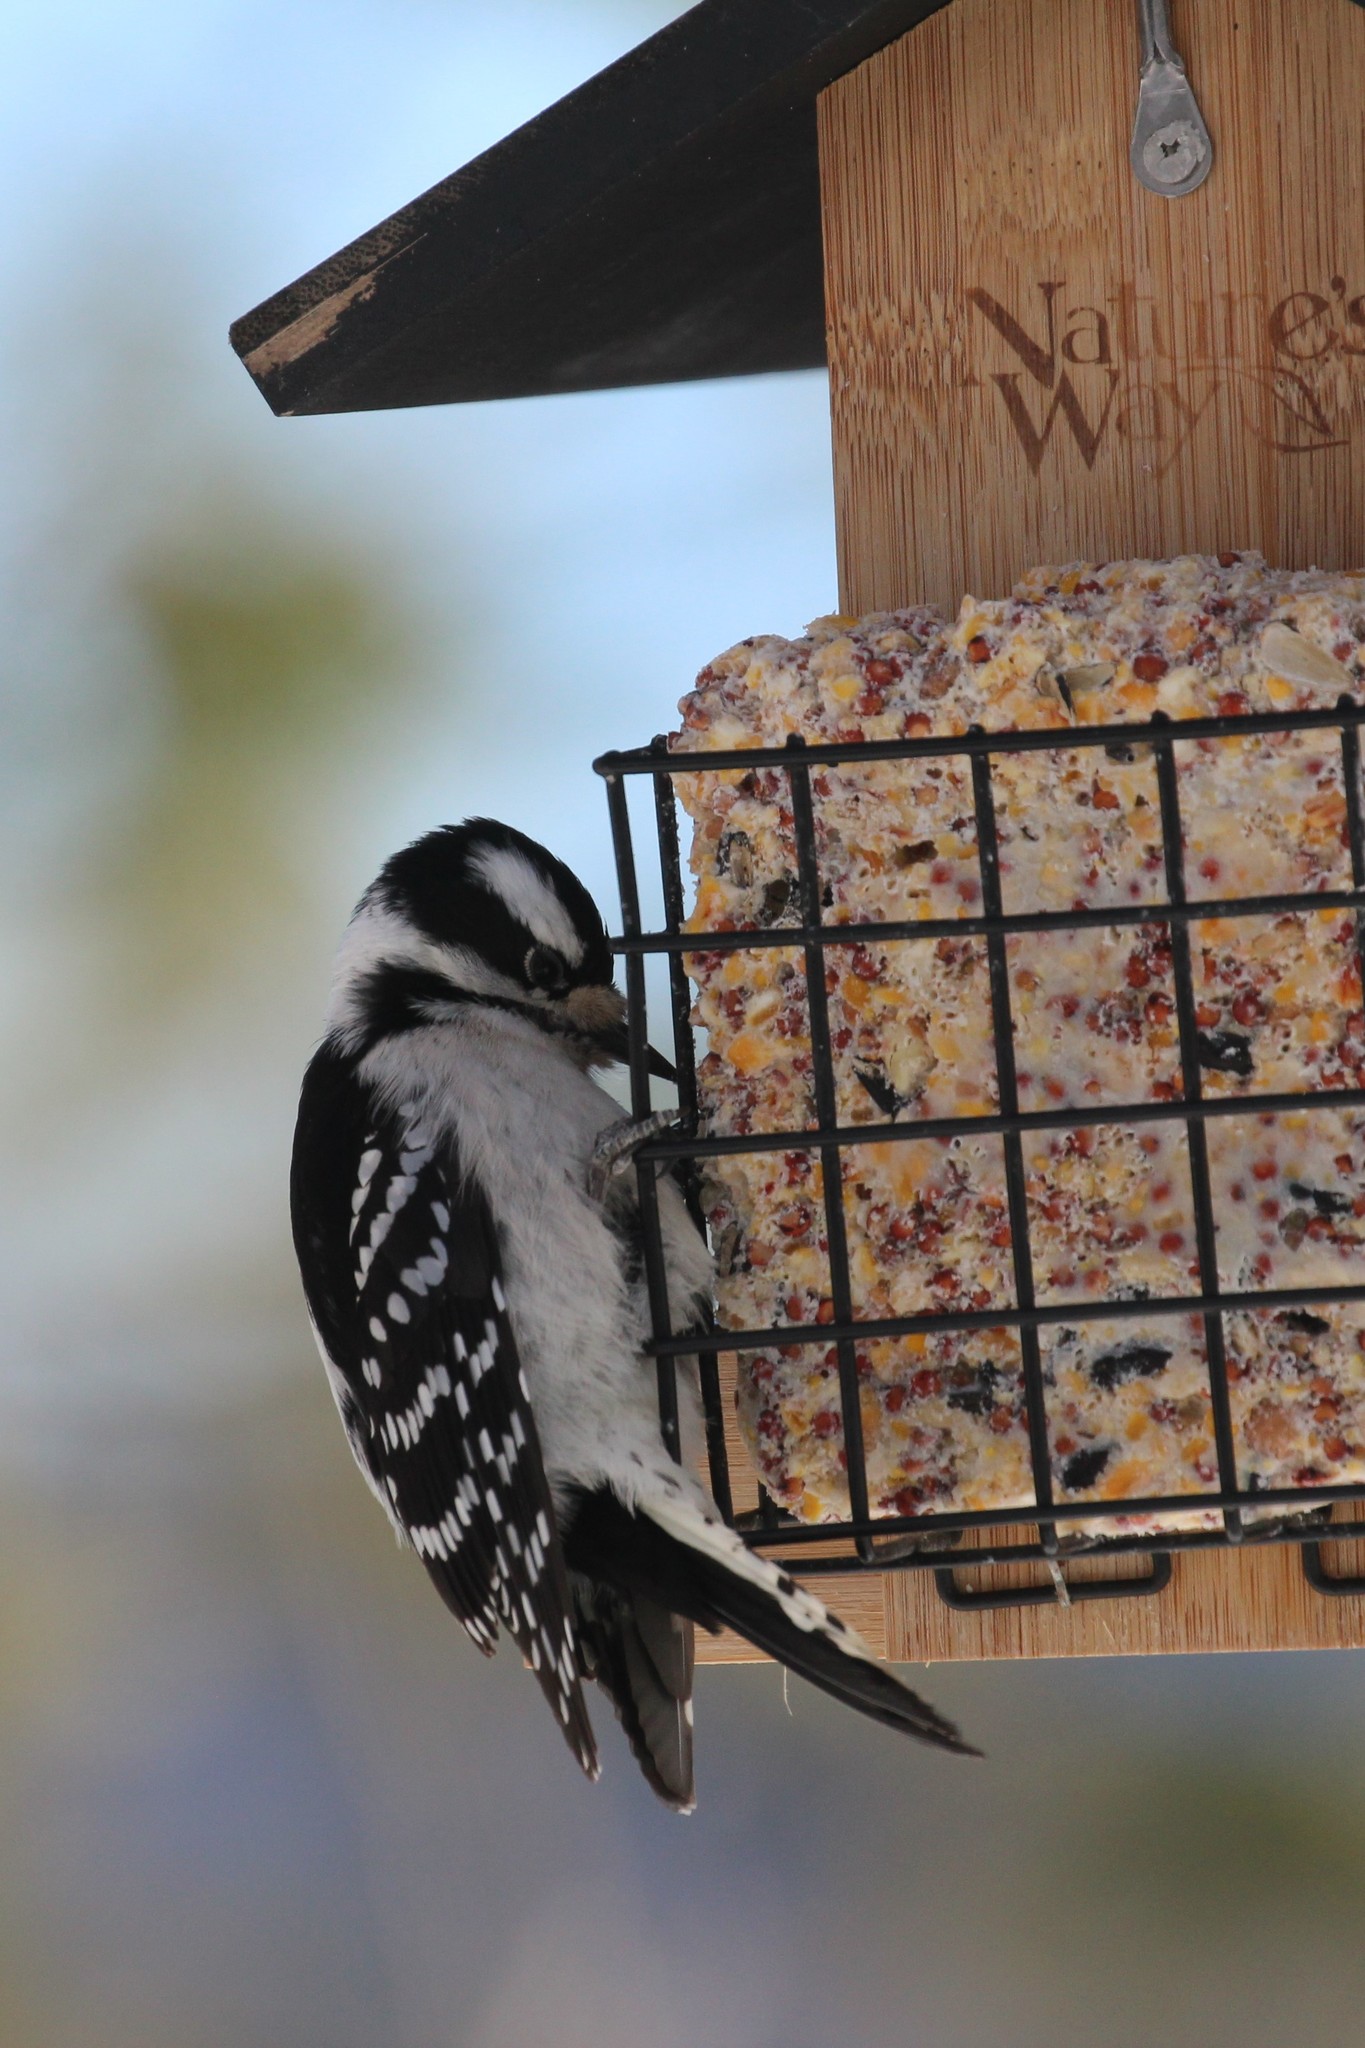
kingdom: Animalia
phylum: Chordata
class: Aves
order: Piciformes
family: Picidae
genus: Dryobates
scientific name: Dryobates pubescens
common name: Downy woodpecker
